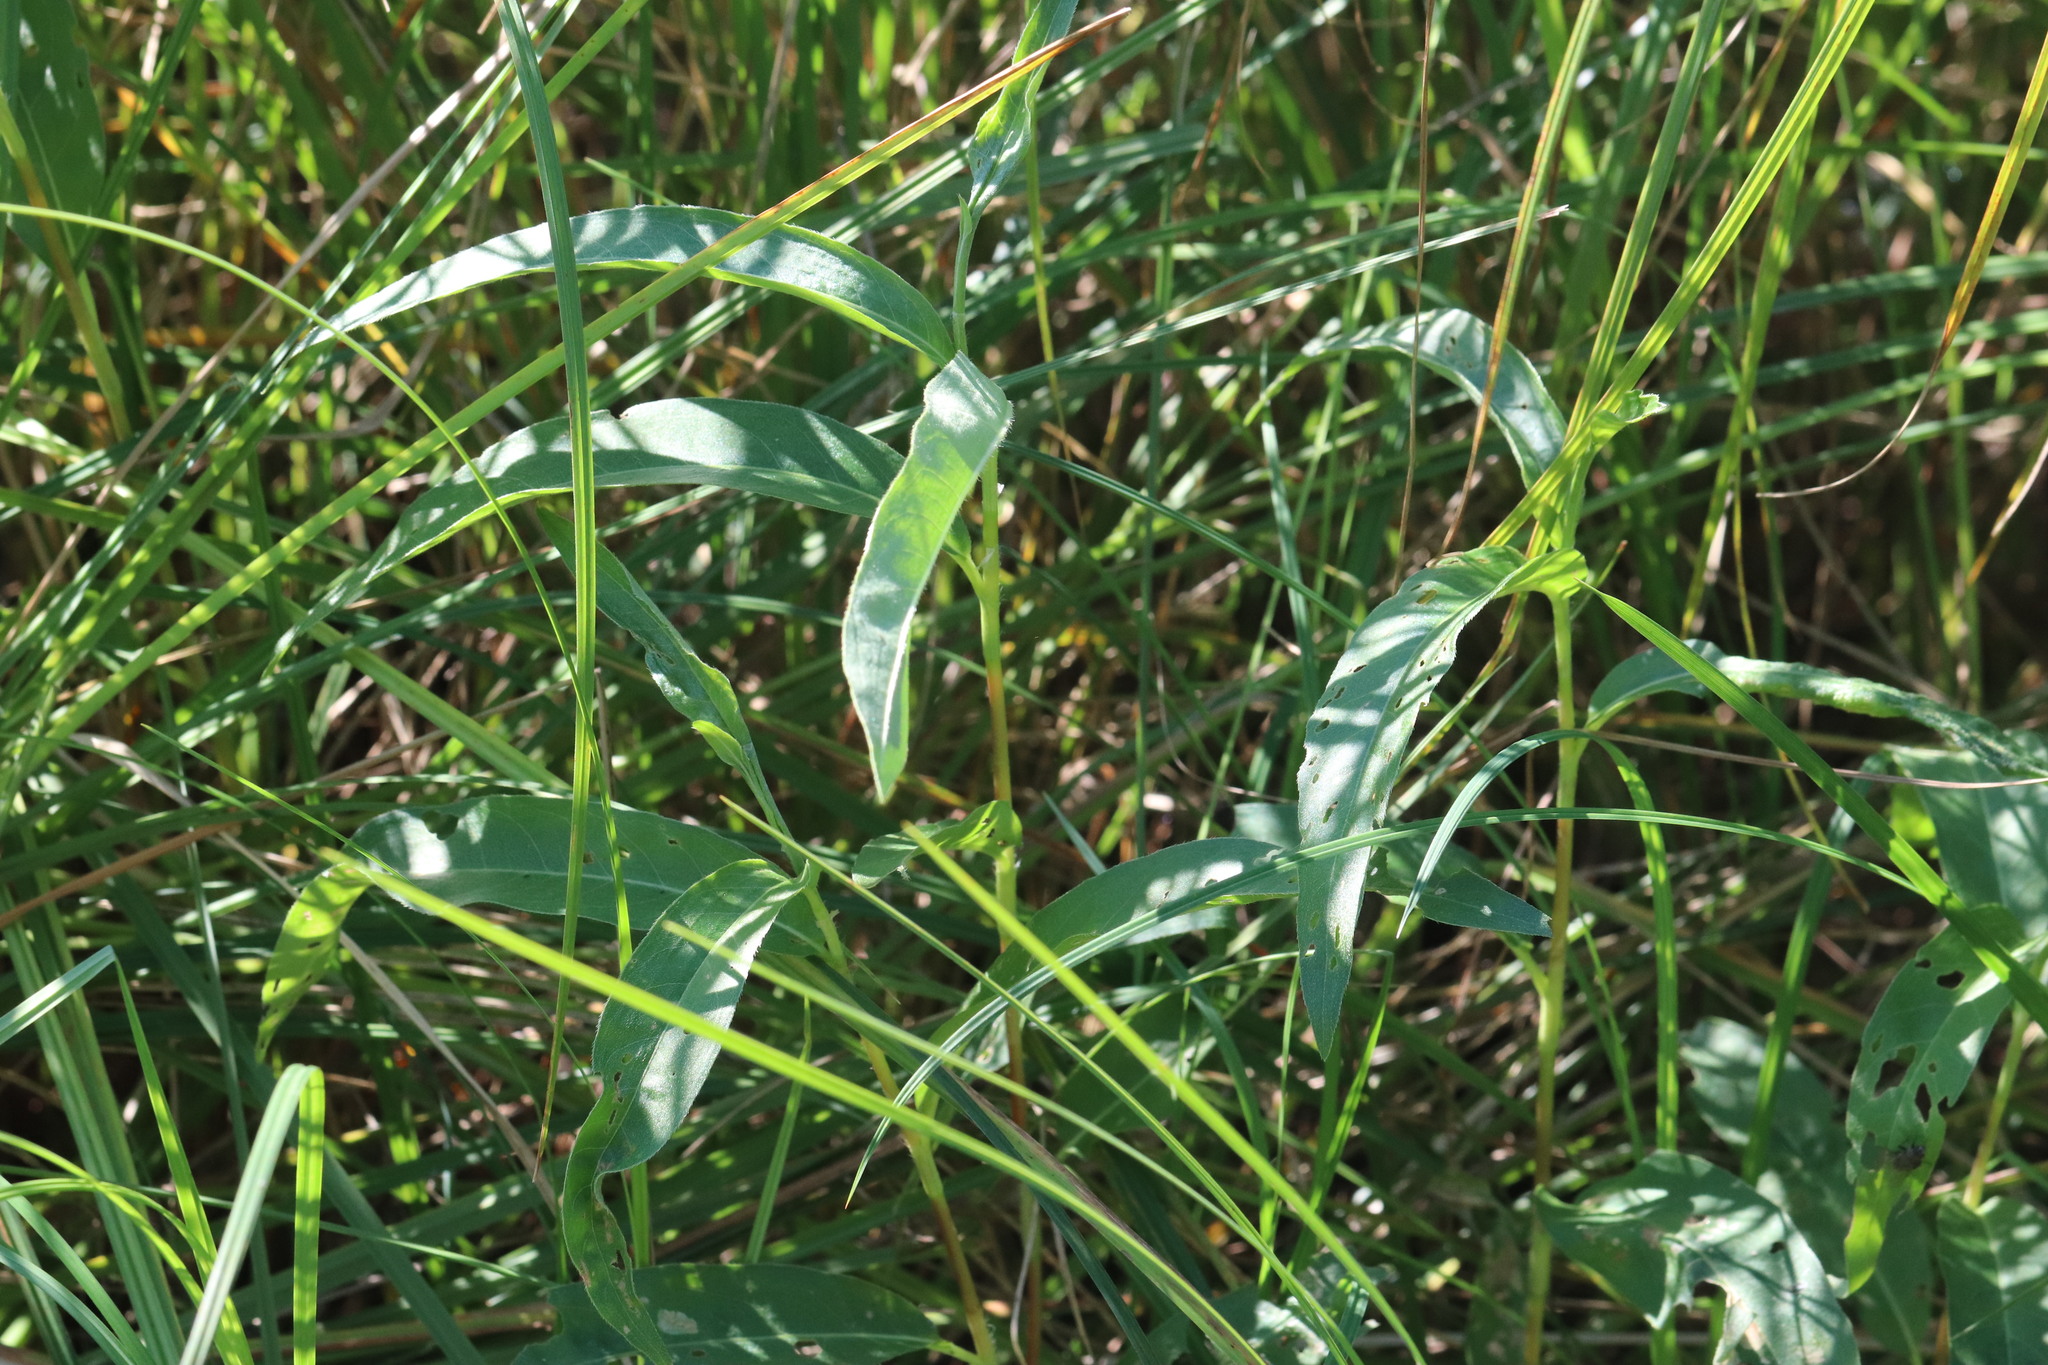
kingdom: Plantae
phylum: Tracheophyta
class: Magnoliopsida
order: Caryophyllales
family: Polygonaceae
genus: Persicaria
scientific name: Persicaria amphibia
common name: Amphibious bistort
